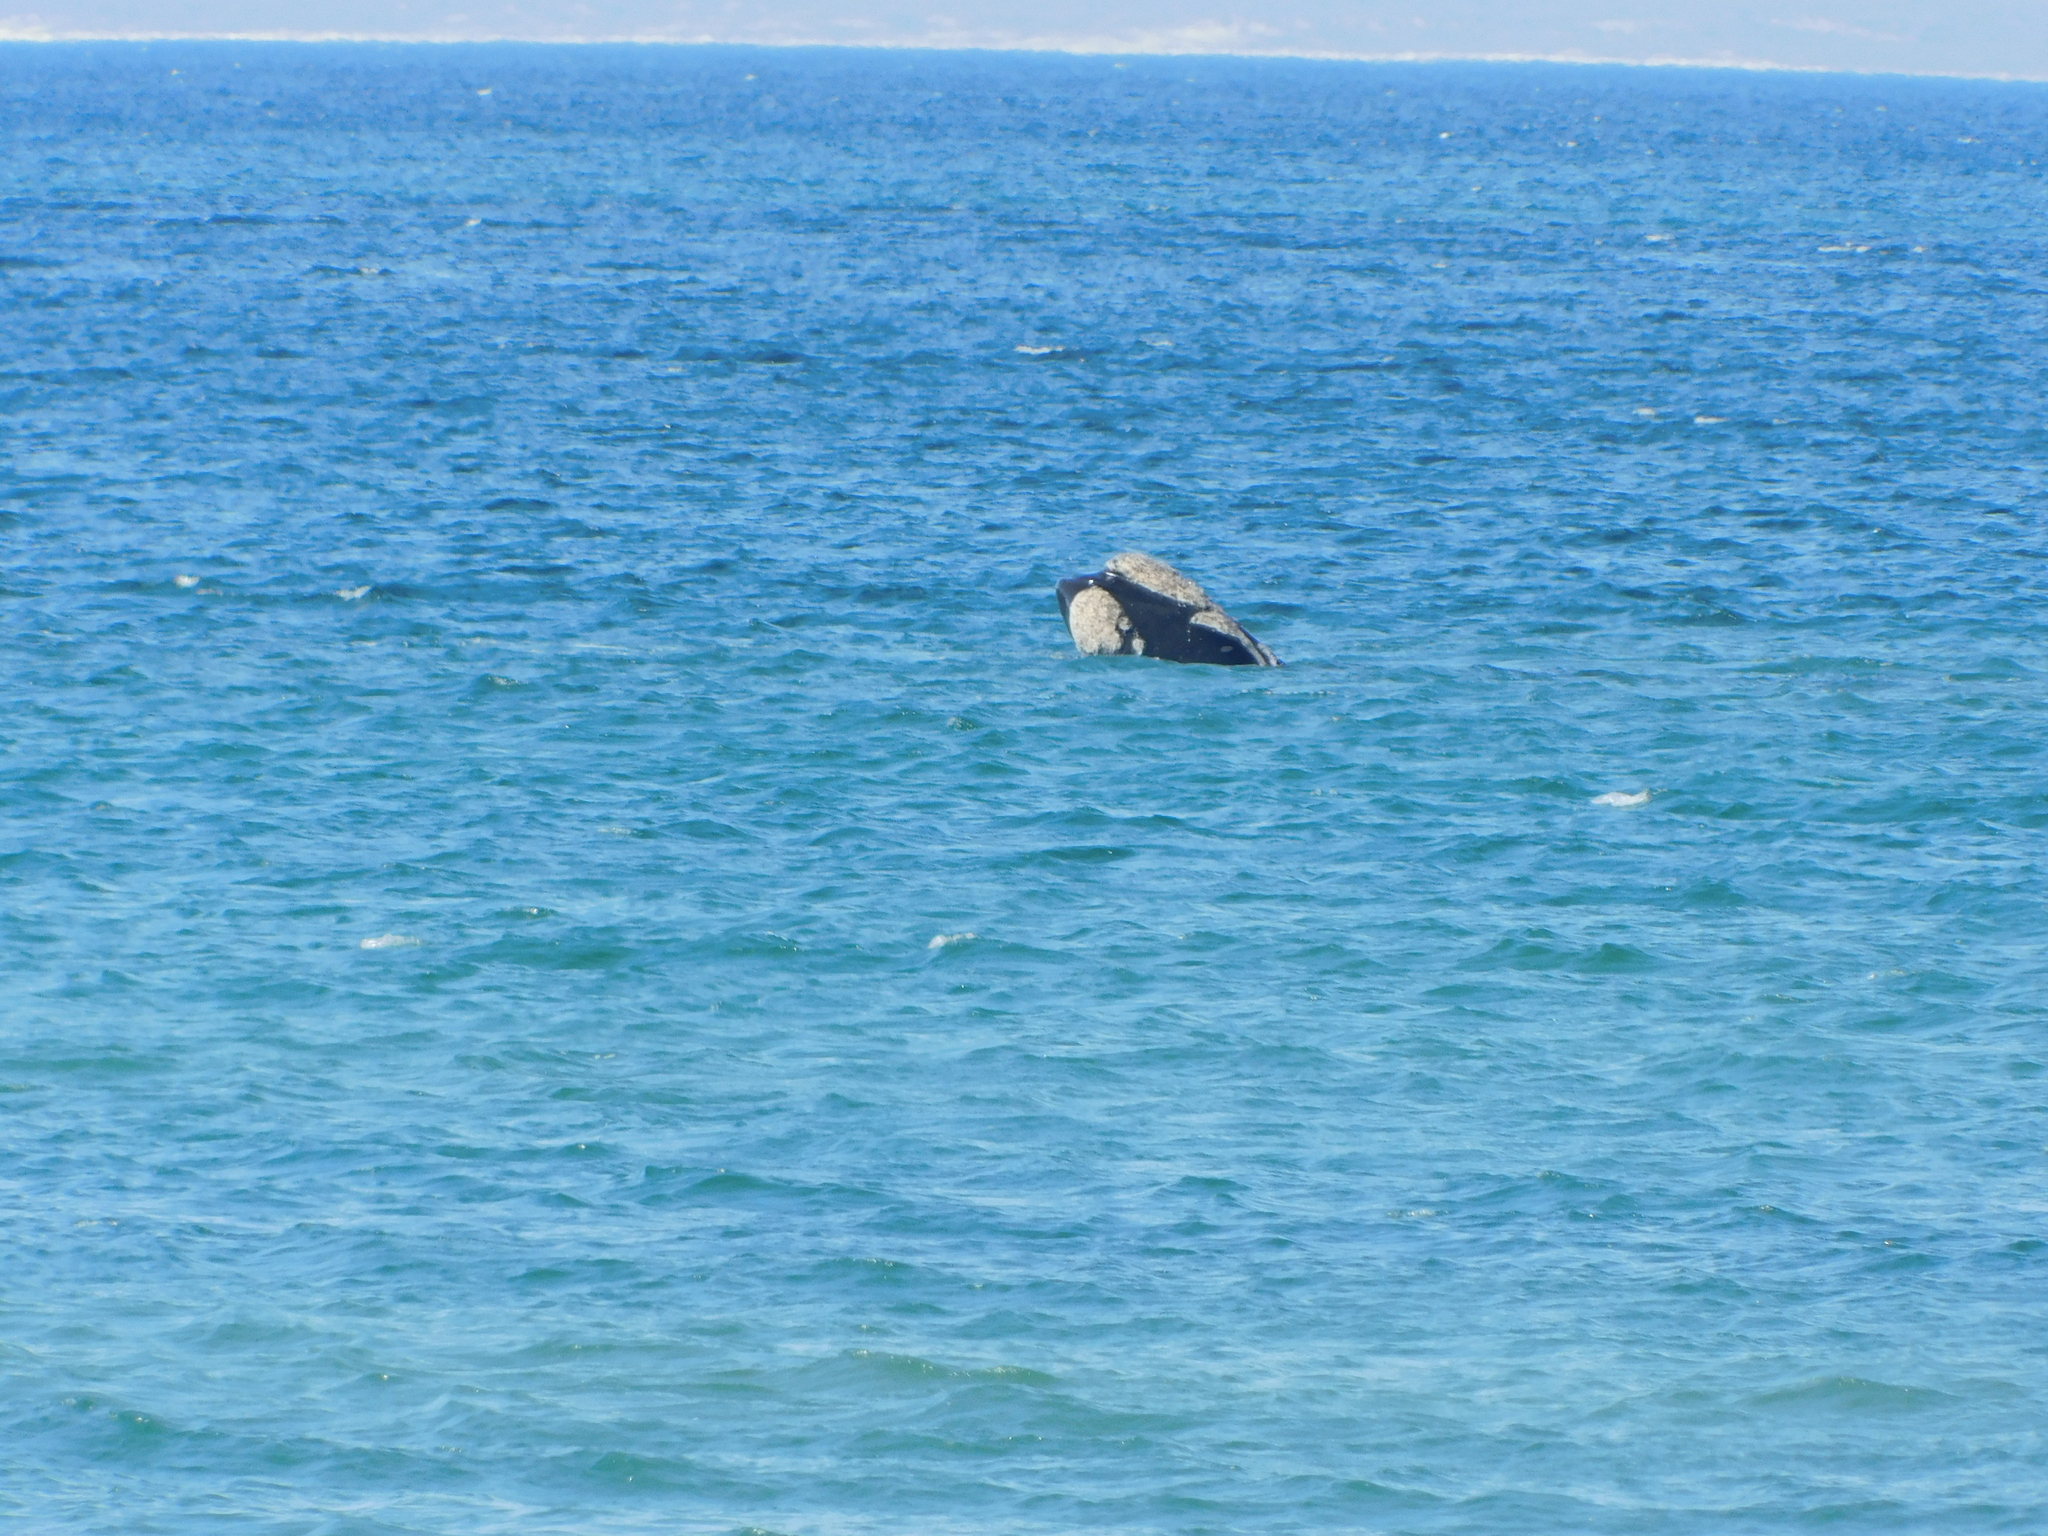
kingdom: Animalia
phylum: Chordata
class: Mammalia
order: Cetacea
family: Balaenidae
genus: Eubalaena
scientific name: Eubalaena australis
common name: Southern right whale
